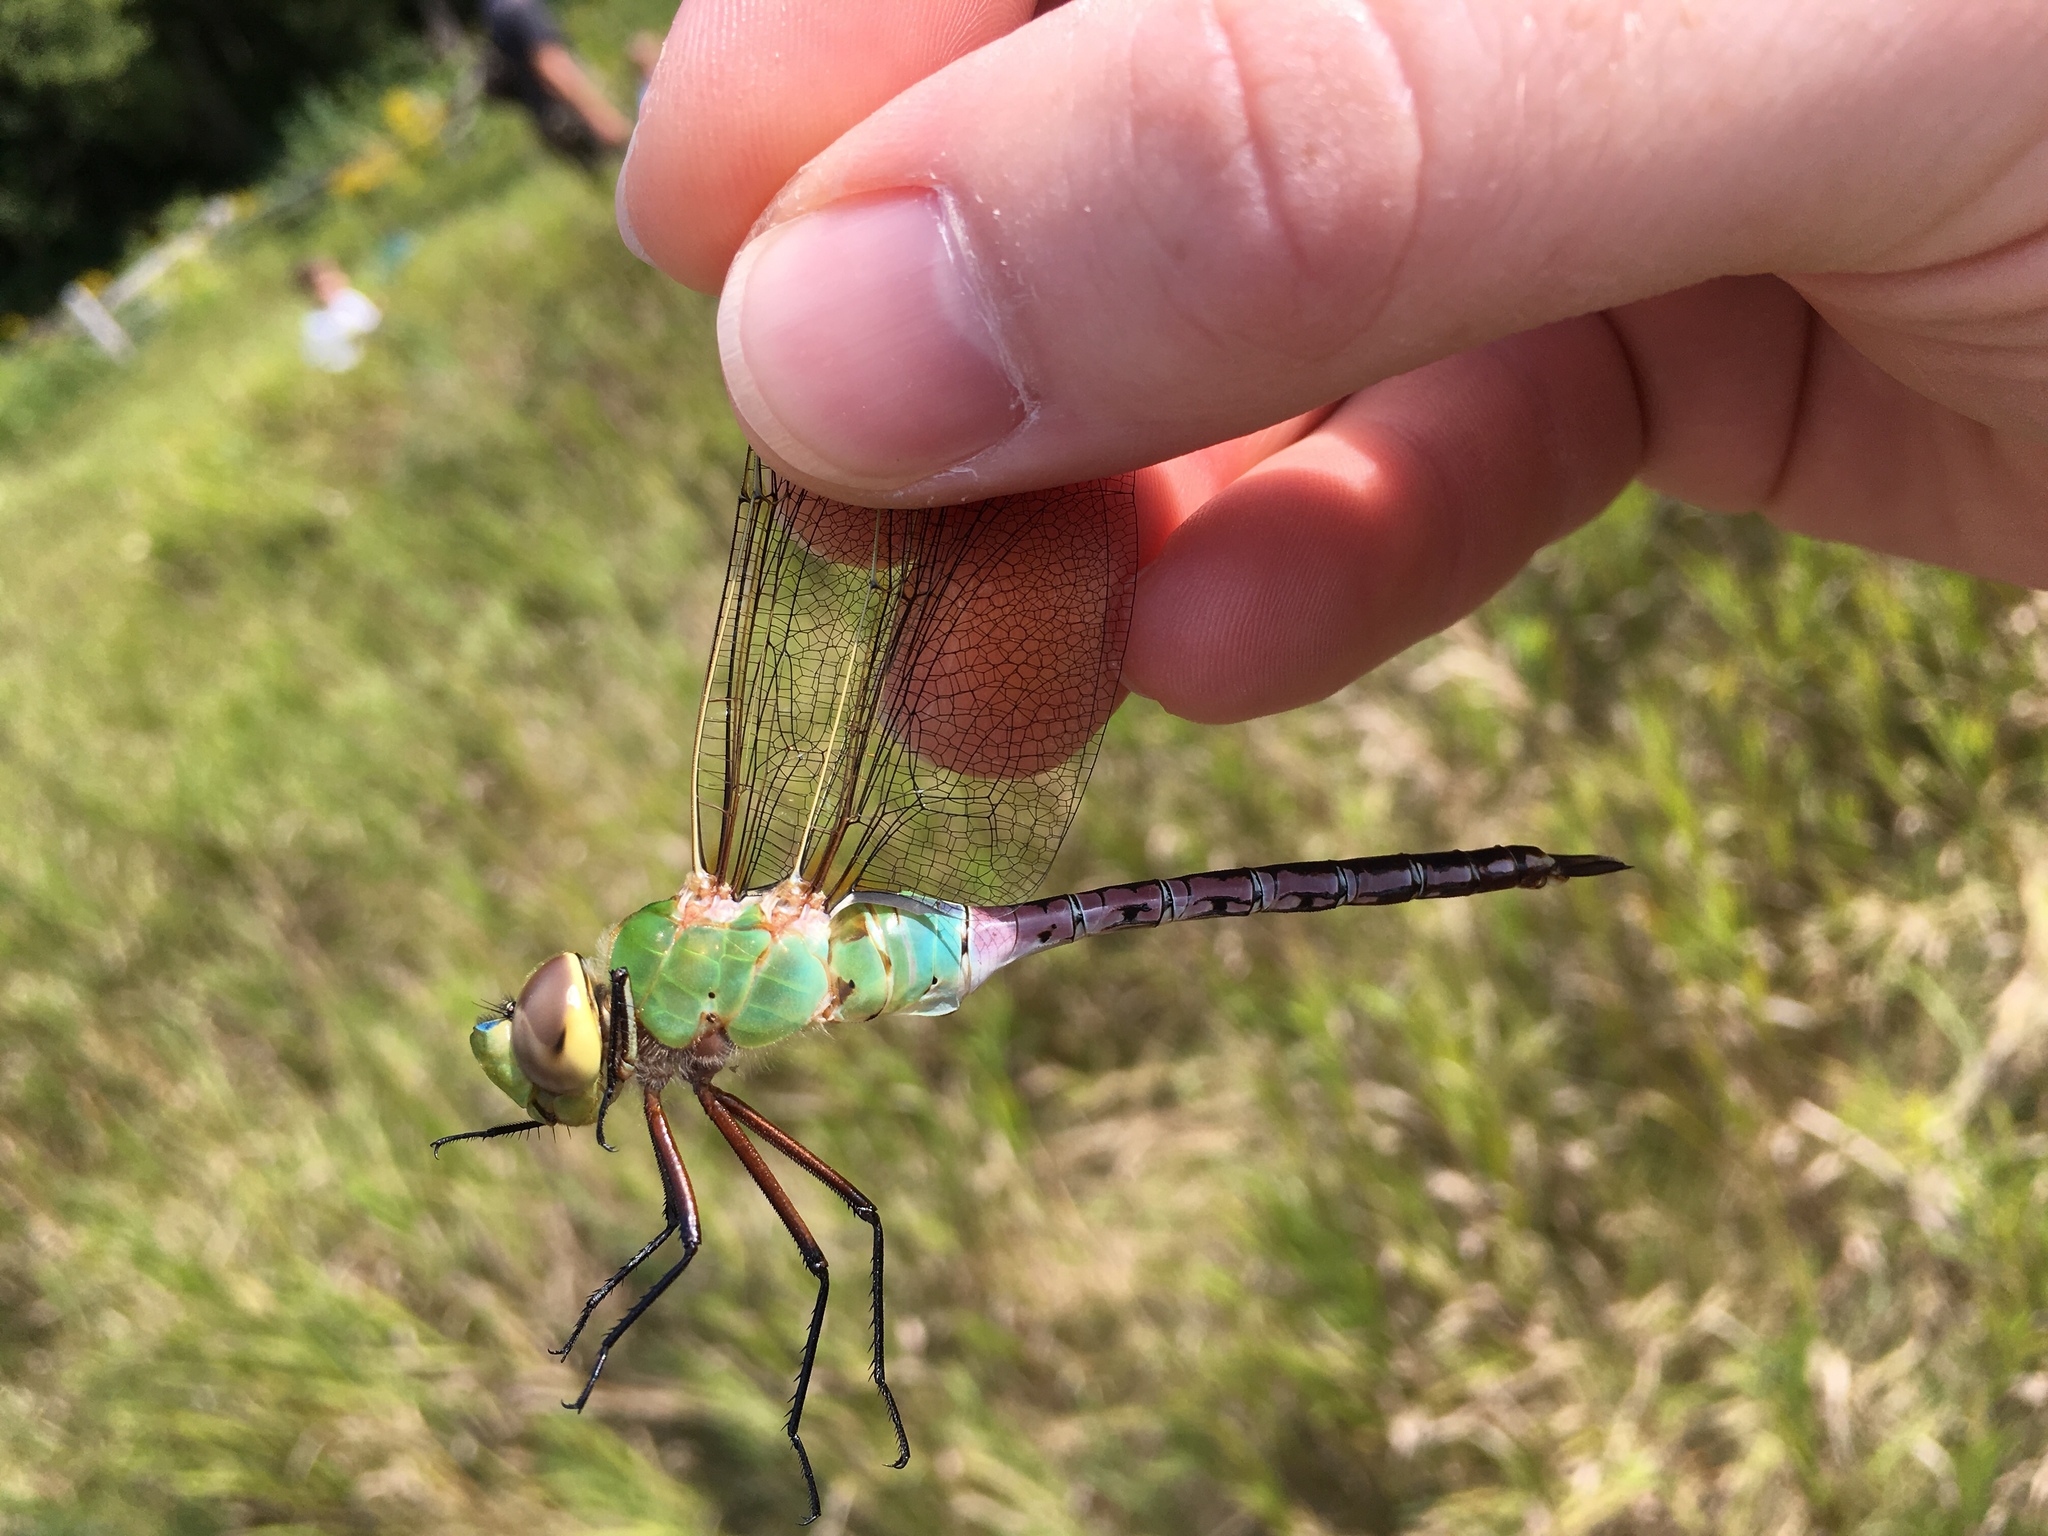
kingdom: Animalia
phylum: Arthropoda
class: Insecta
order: Odonata
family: Aeshnidae
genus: Anax
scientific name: Anax junius
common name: Common green darner
